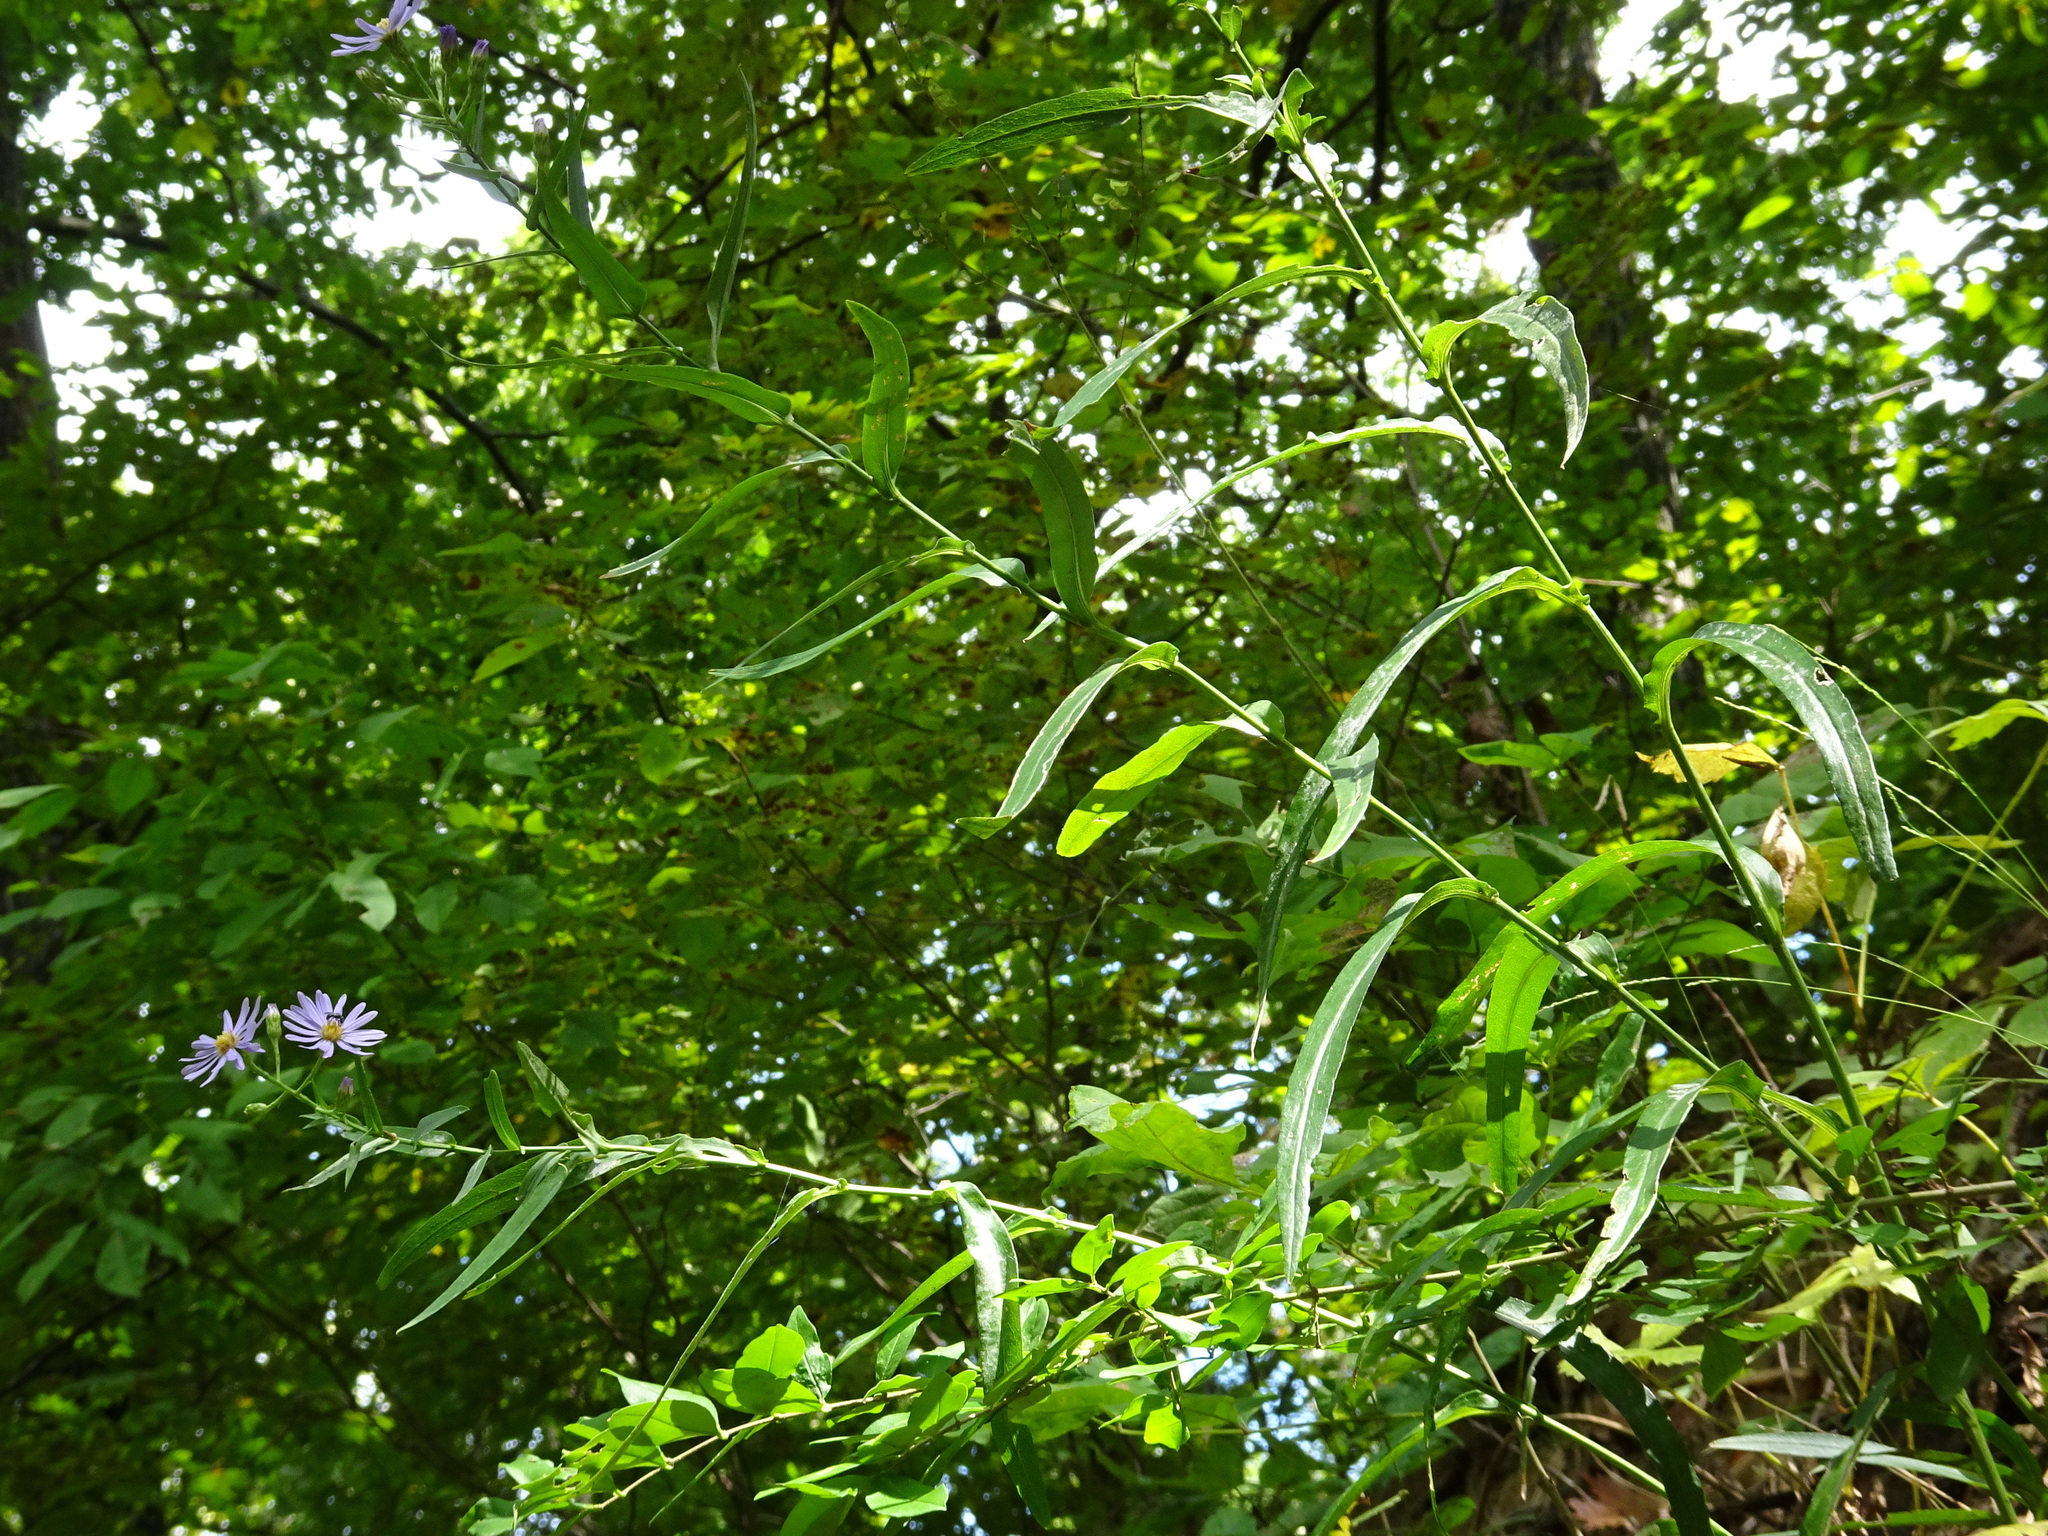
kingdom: Plantae
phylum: Tracheophyta
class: Magnoliopsida
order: Asterales
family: Asteraceae
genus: Symphyotrichum
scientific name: Symphyotrichum laeve
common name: Glaucous aster
